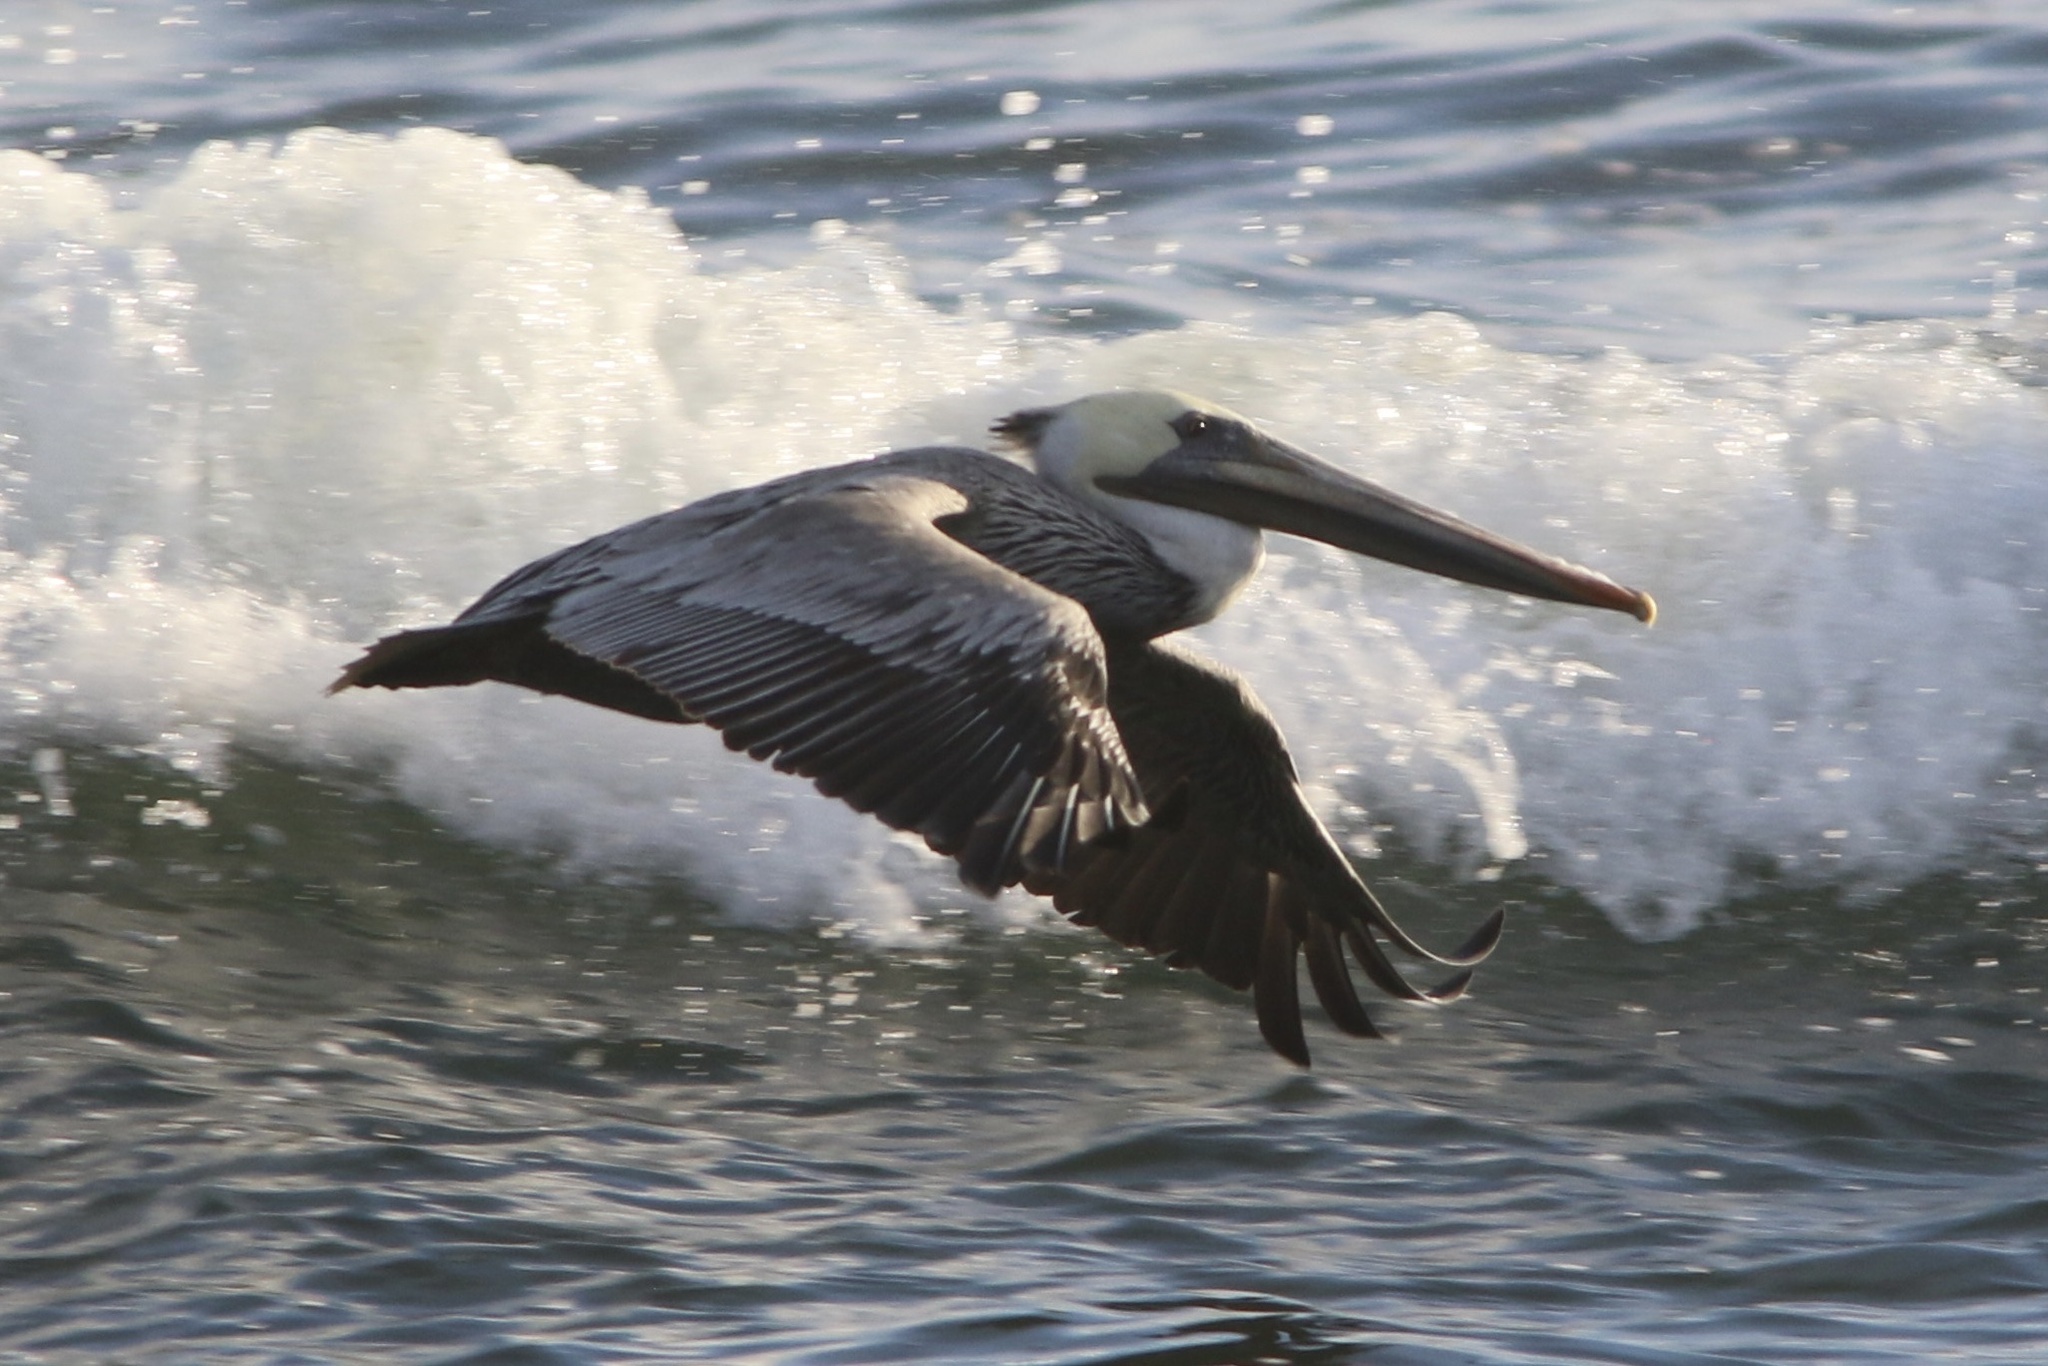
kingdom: Animalia
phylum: Chordata
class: Aves
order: Pelecaniformes
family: Pelecanidae
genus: Pelecanus
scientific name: Pelecanus occidentalis
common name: Brown pelican
